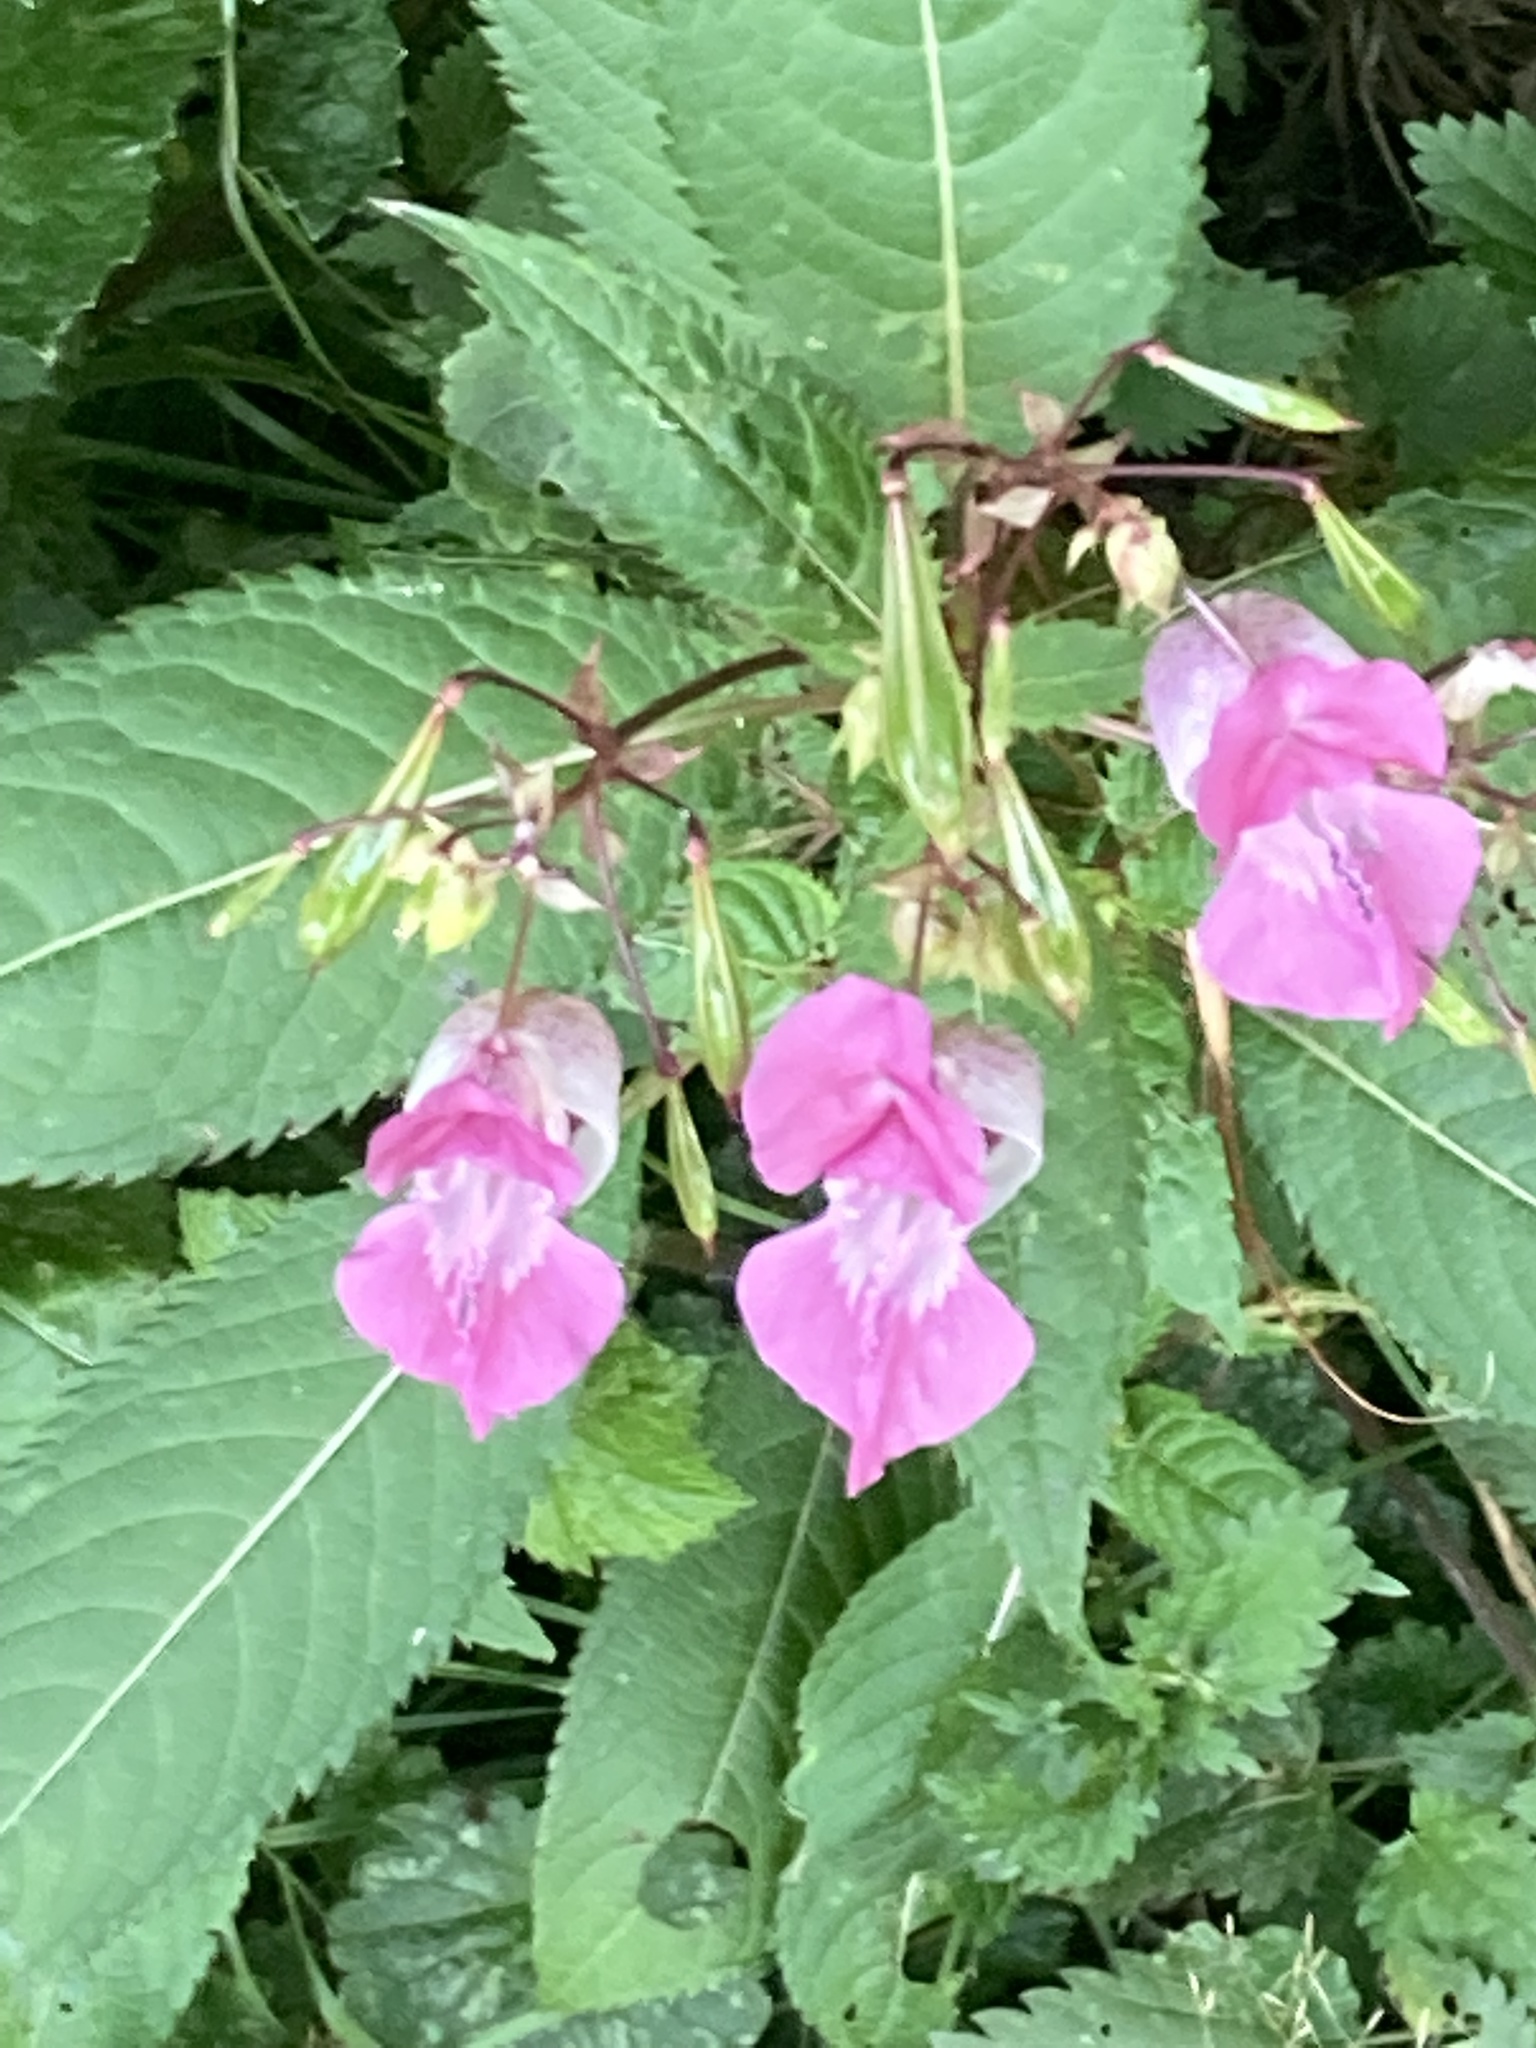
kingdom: Plantae
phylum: Tracheophyta
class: Magnoliopsida
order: Ericales
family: Balsaminaceae
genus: Impatiens
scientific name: Impatiens glandulifera
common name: Himalayan balsam
